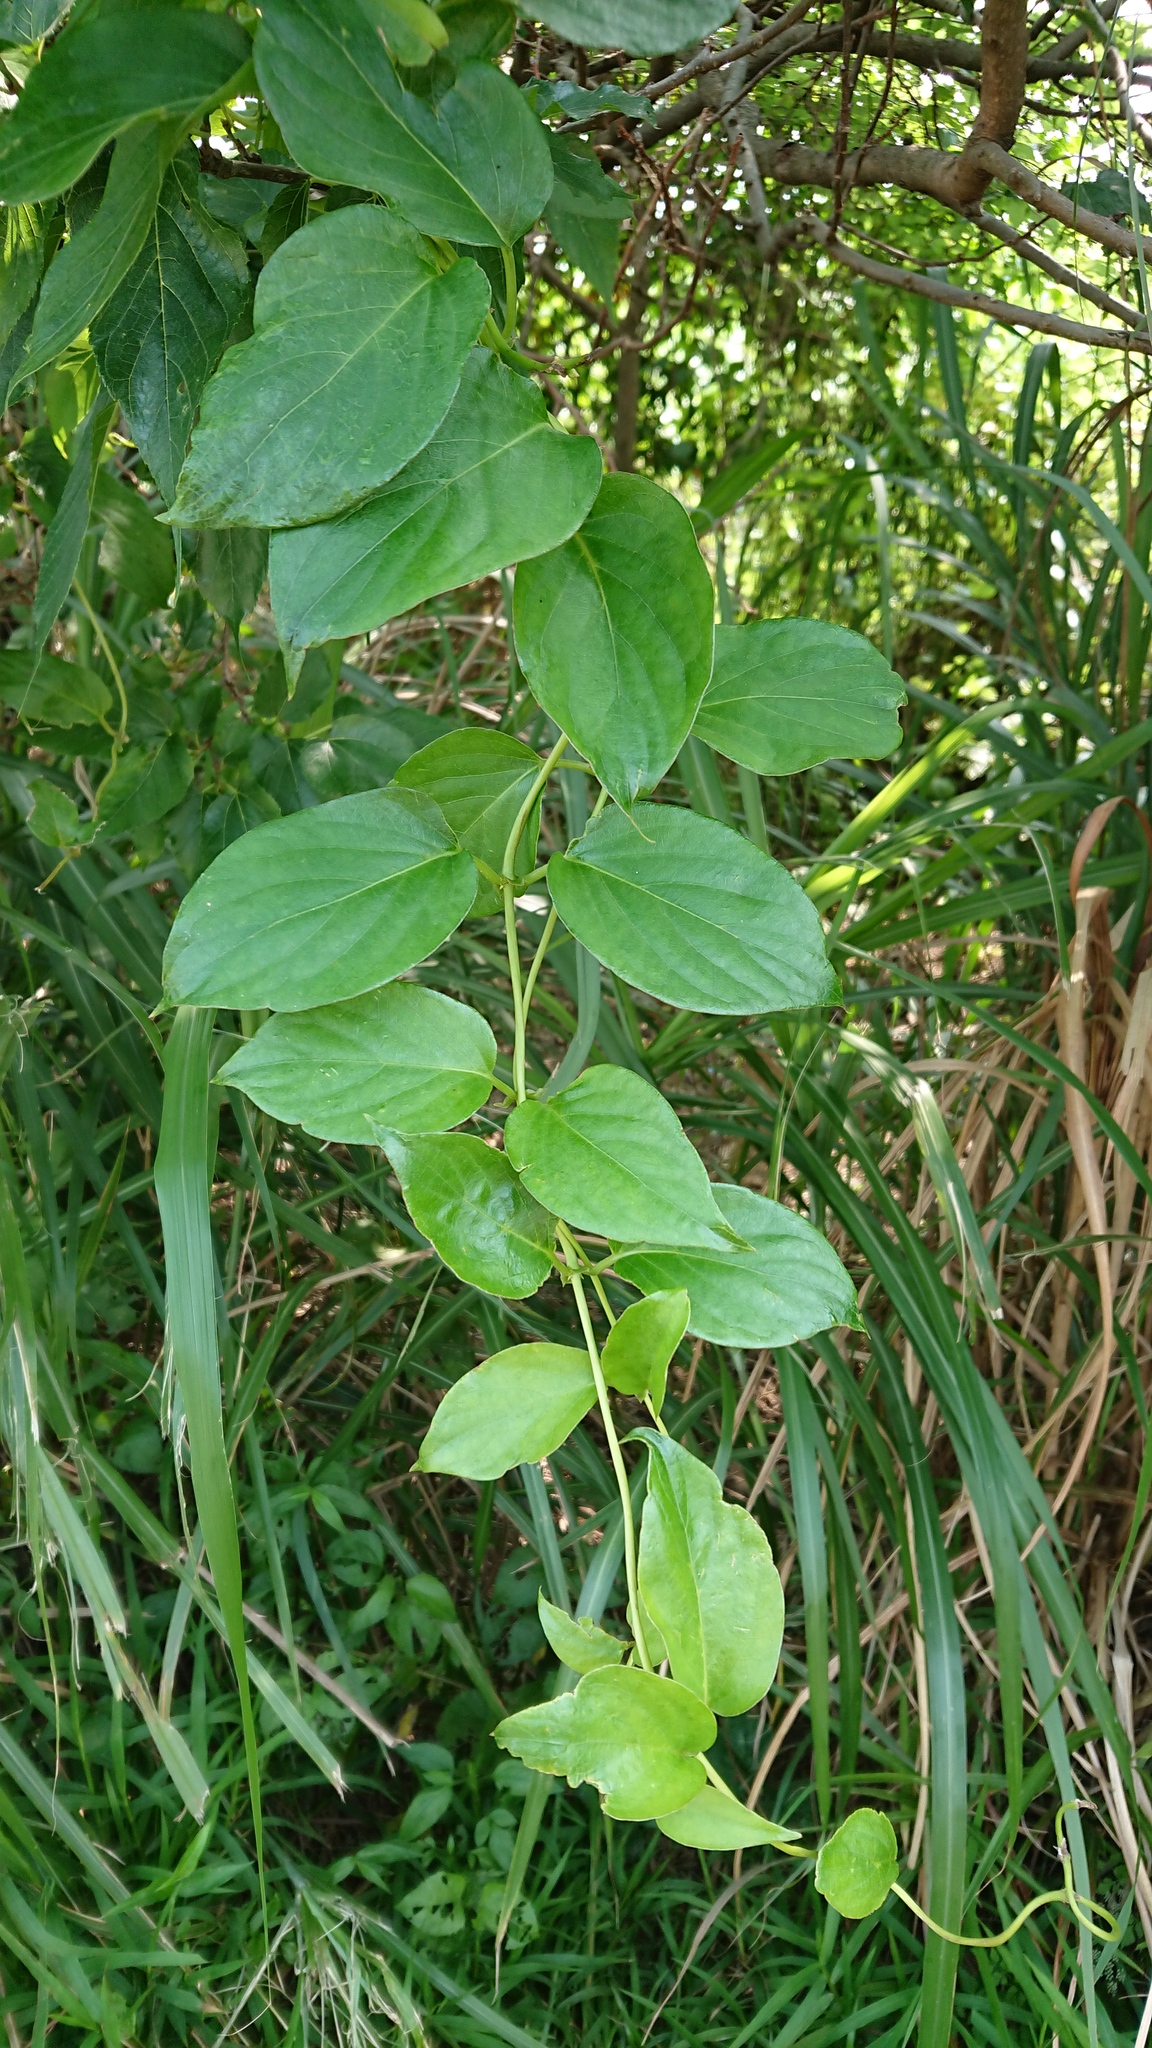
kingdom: Plantae
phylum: Tracheophyta
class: Magnoliopsida
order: Gentianales
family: Rubiaceae
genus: Paederia
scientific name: Paederia foetida
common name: Stinkvine
